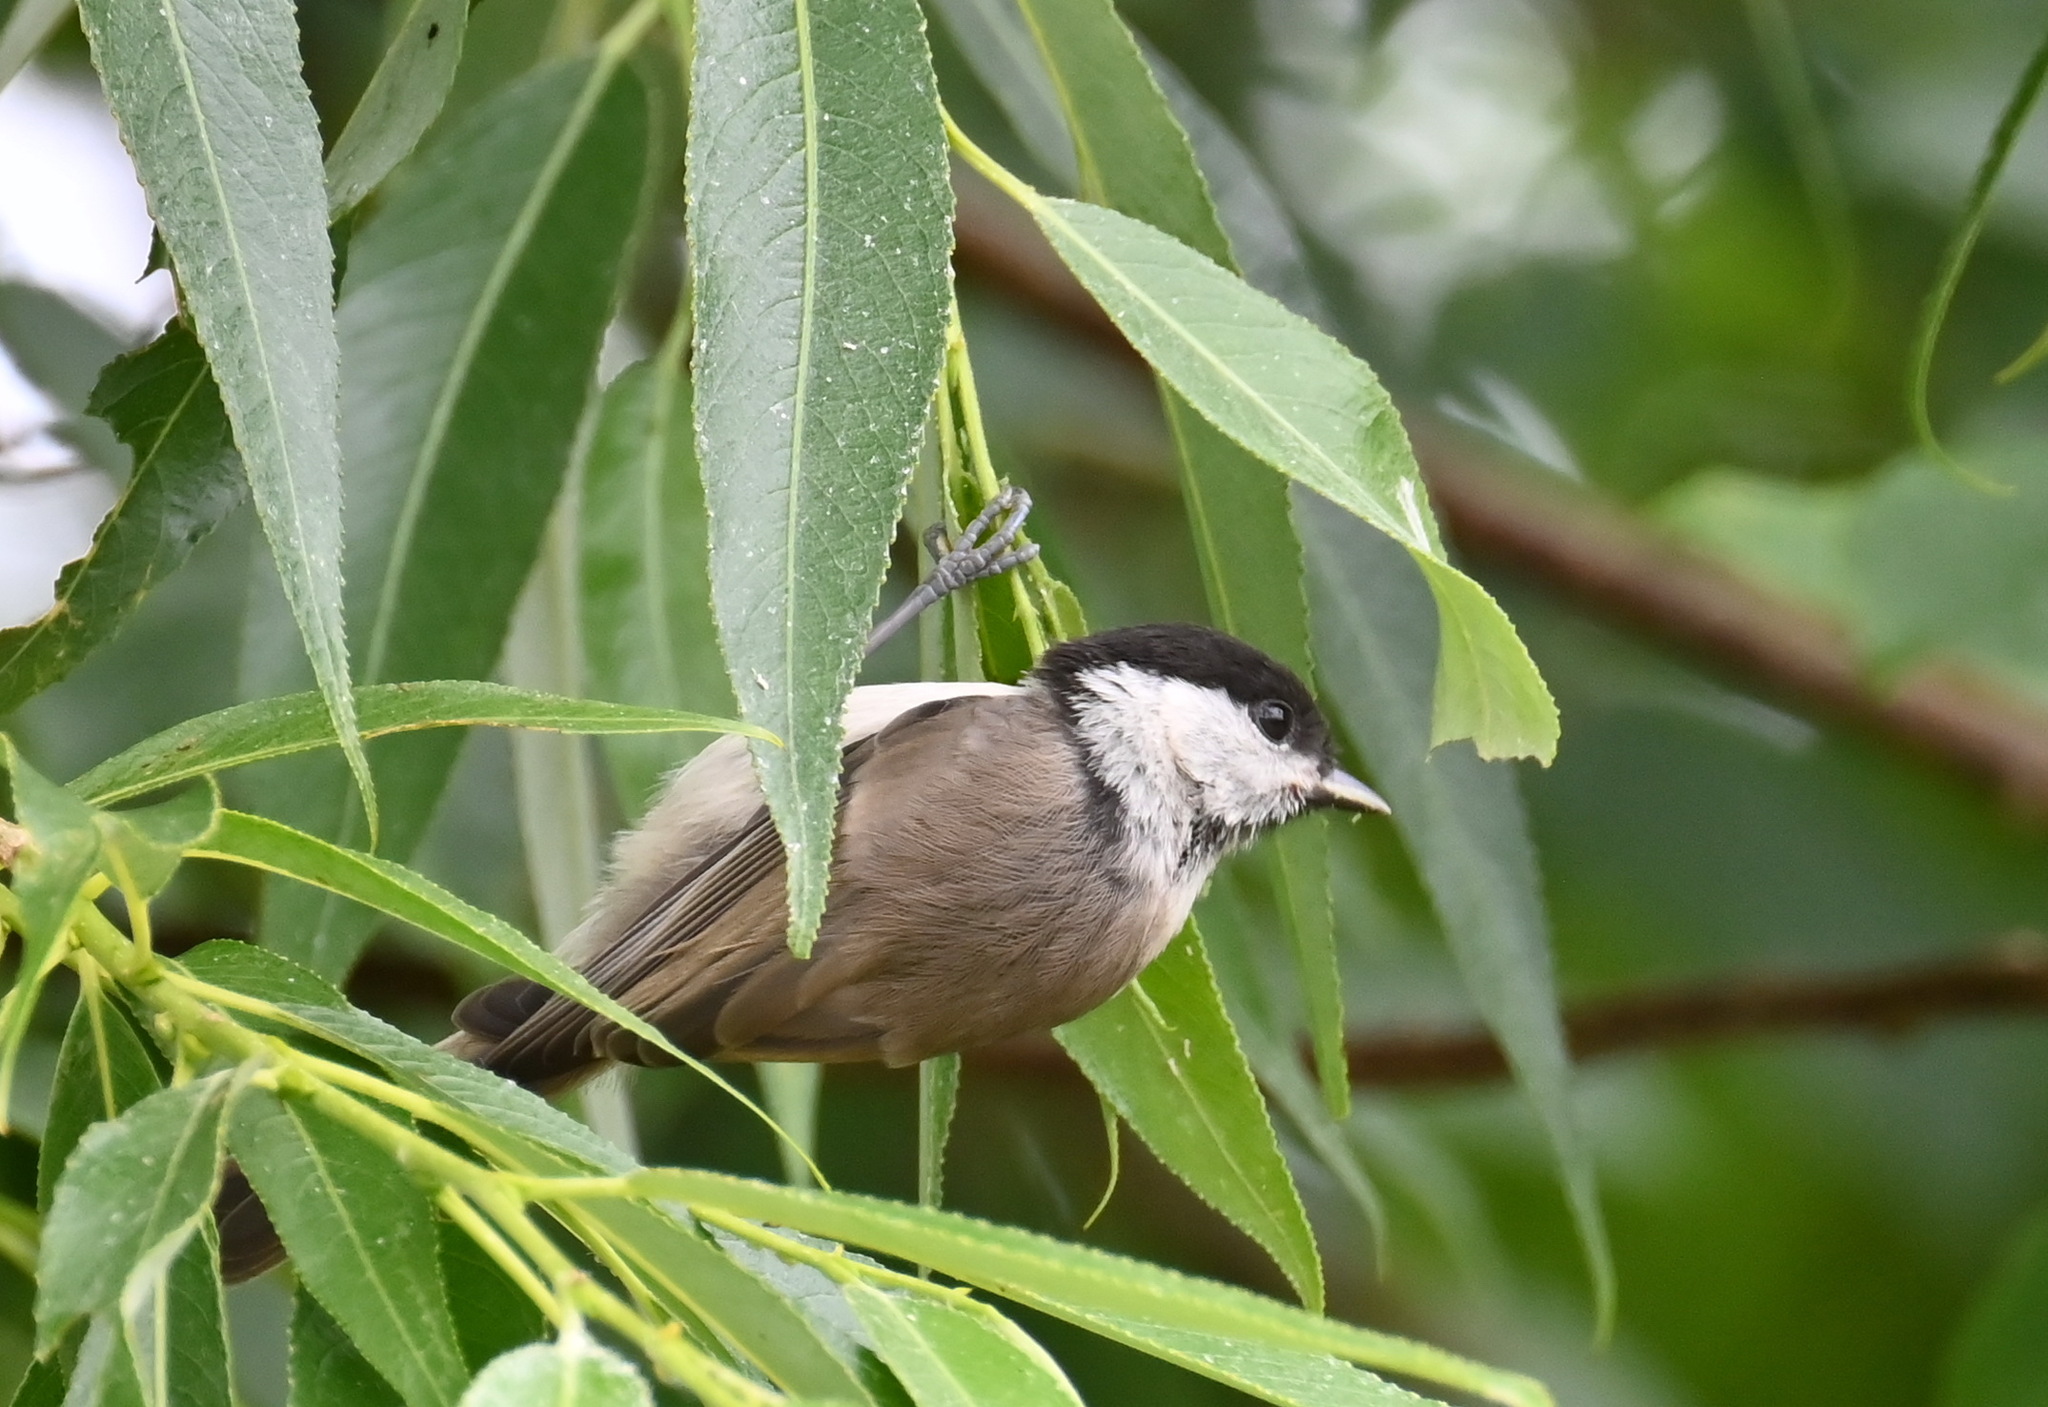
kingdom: Animalia
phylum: Chordata
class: Aves
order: Passeriformes
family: Paridae
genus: Poecile
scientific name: Poecile palustris
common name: Marsh tit
